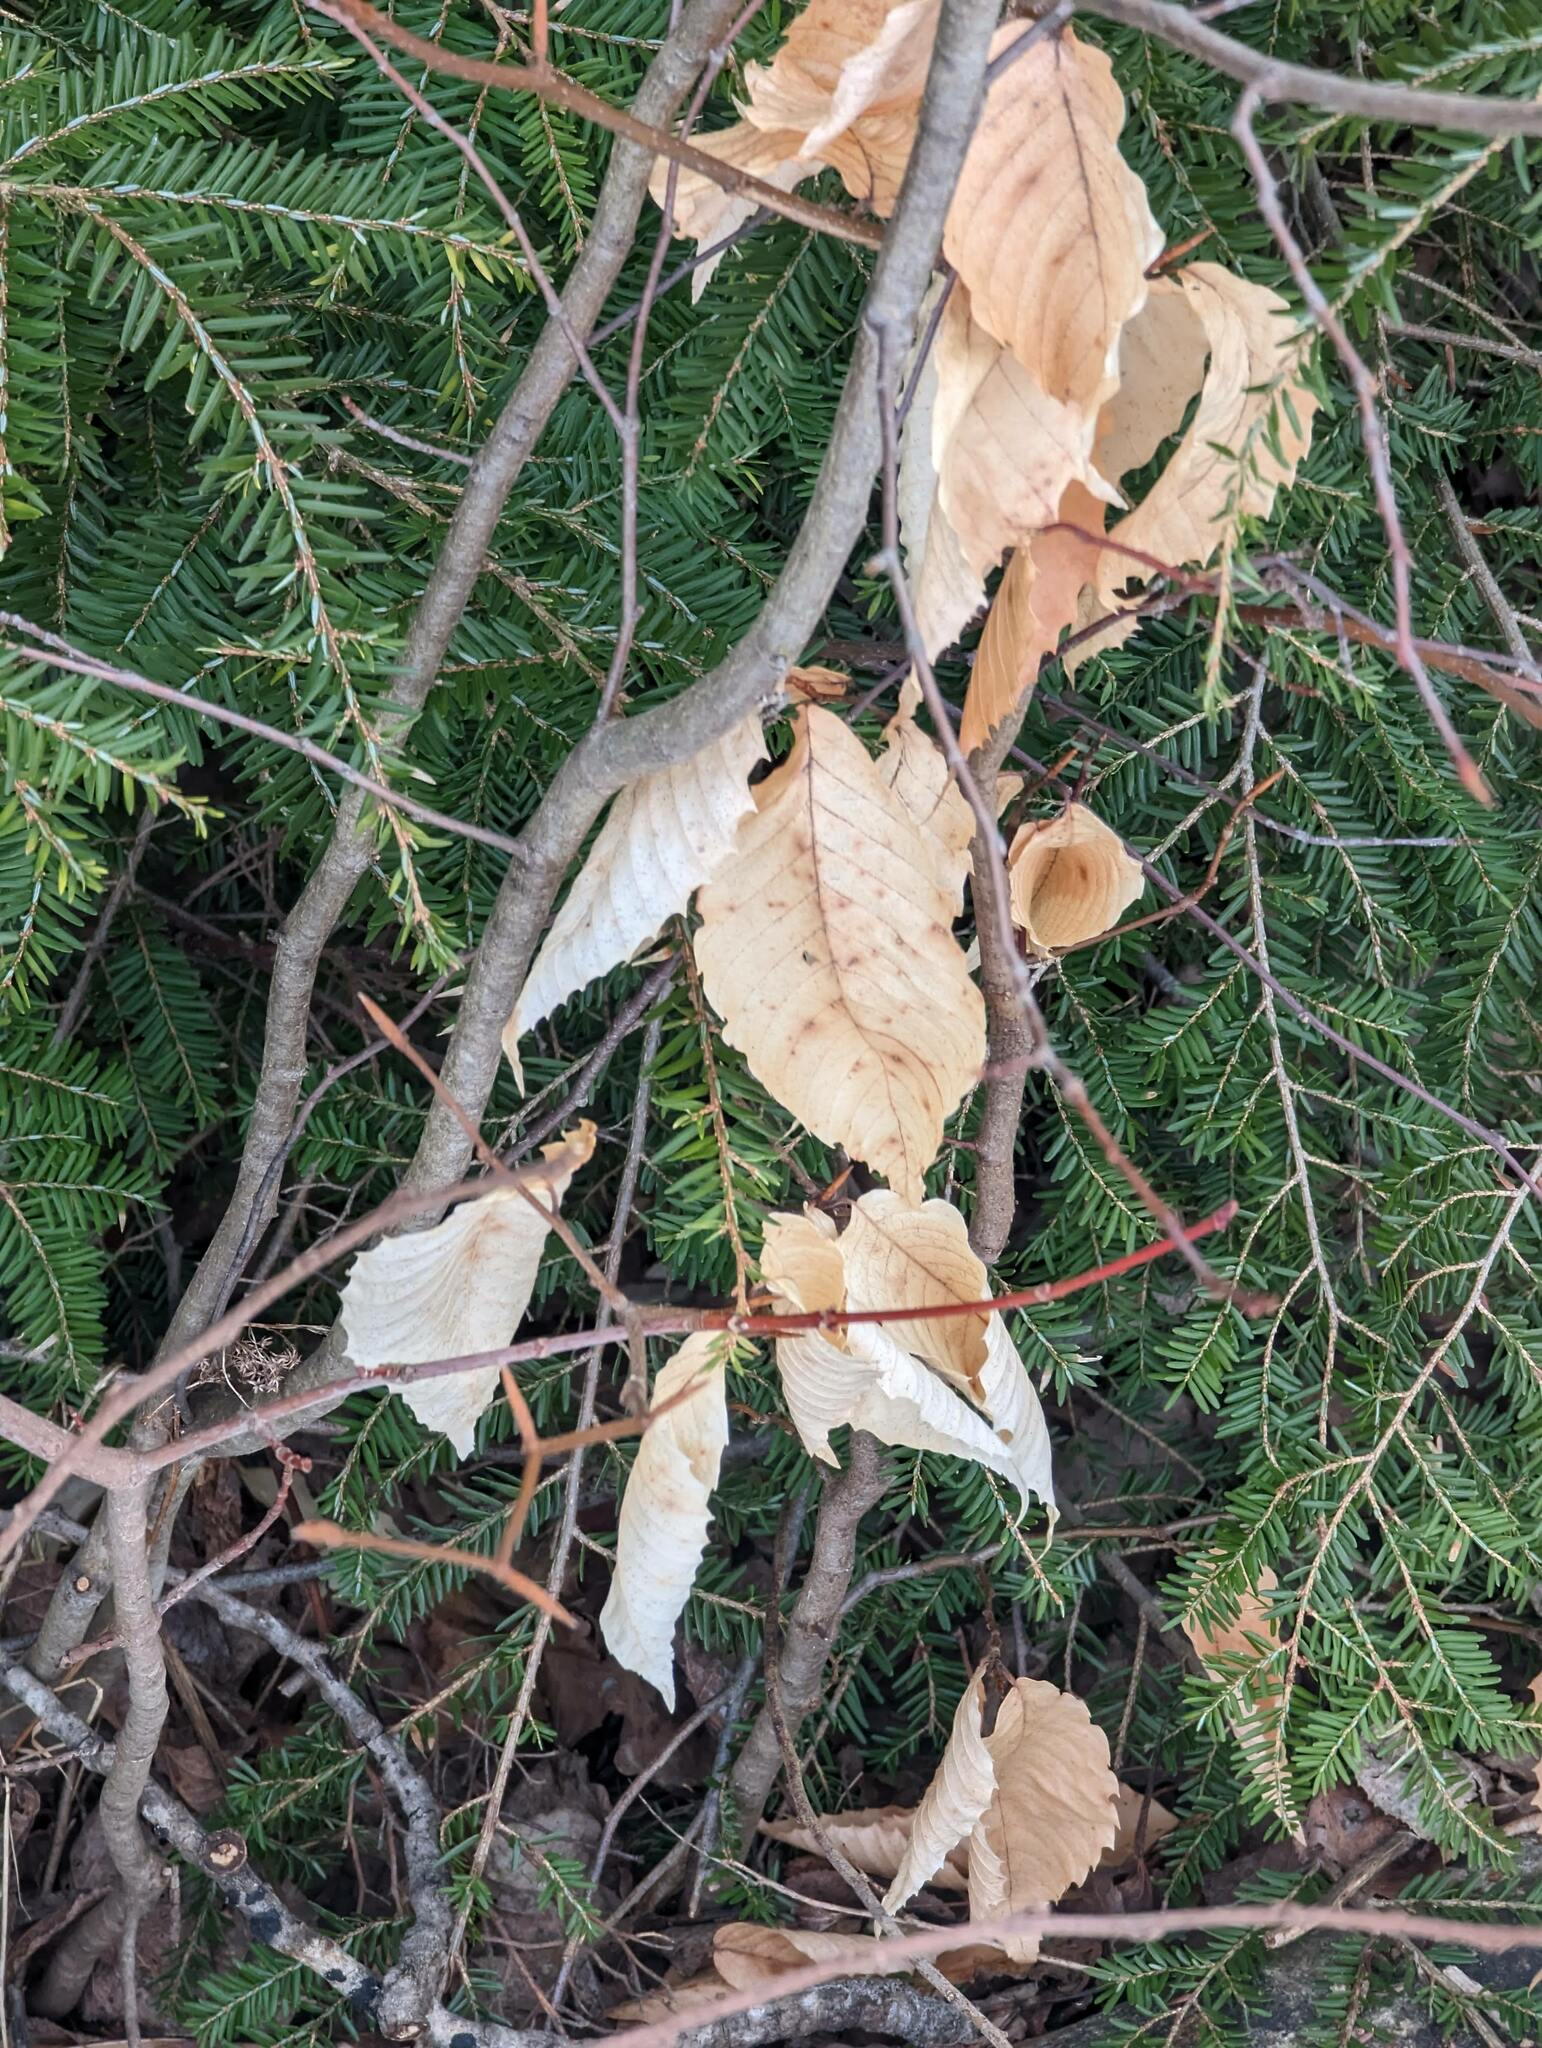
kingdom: Plantae
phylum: Tracheophyta
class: Magnoliopsida
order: Fagales
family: Fagaceae
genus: Fagus
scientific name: Fagus grandifolia
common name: American beech
